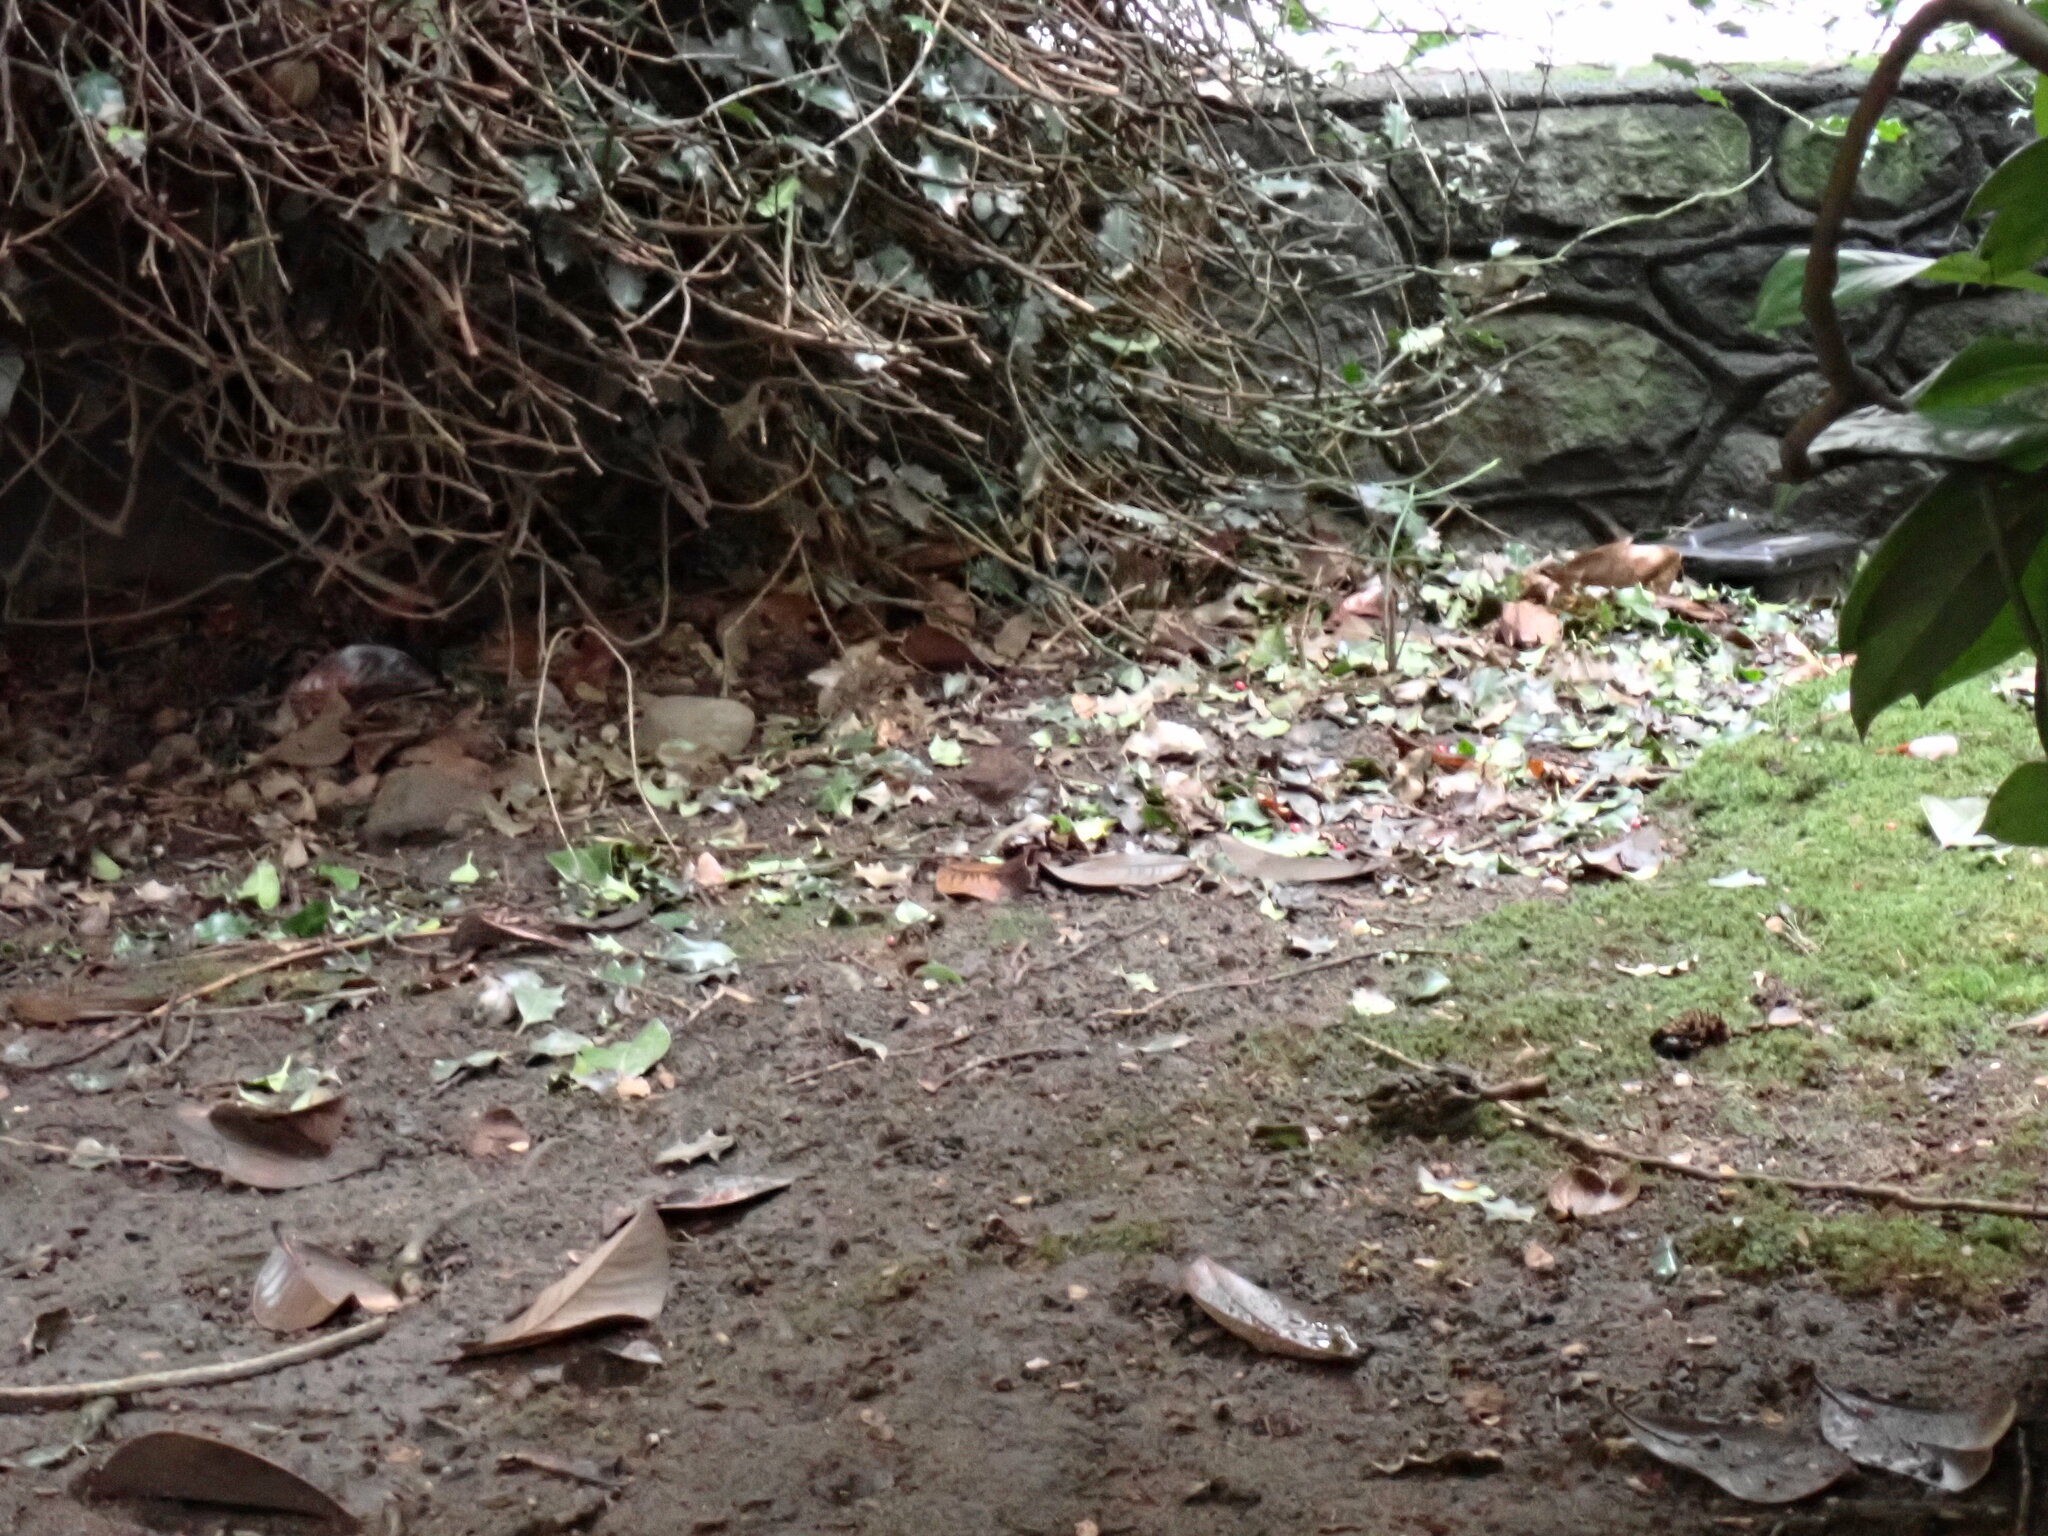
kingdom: Animalia
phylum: Chordata
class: Aves
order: Passeriformes
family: Passerellidae
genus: Pipilo
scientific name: Pipilo maculatus
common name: Spotted towhee
